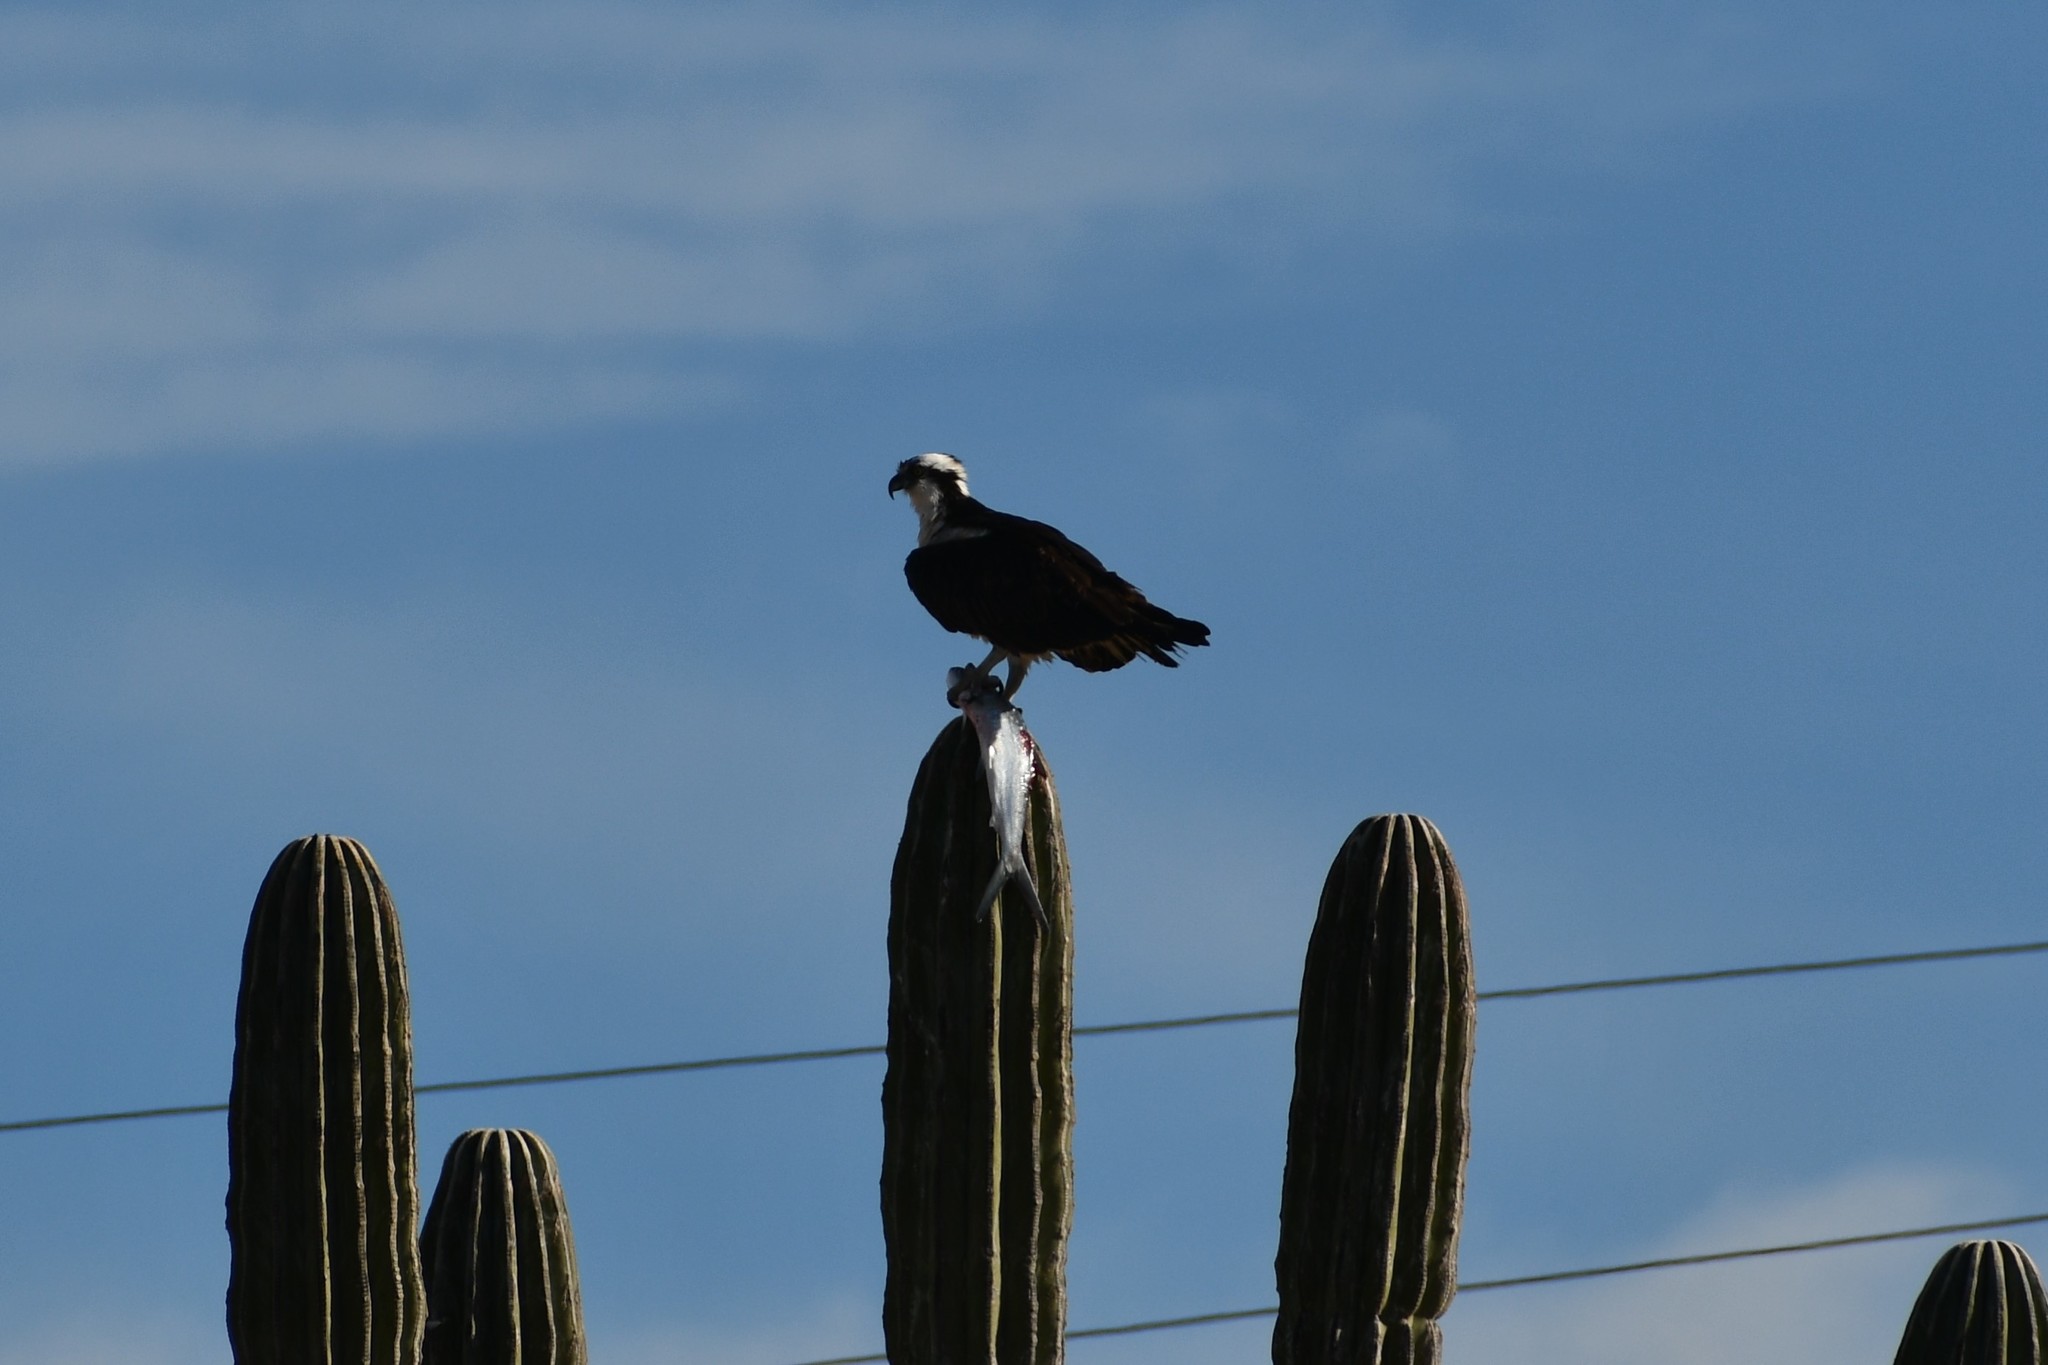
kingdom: Animalia
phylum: Chordata
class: Aves
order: Accipitriformes
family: Pandionidae
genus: Pandion
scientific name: Pandion haliaetus
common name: Osprey
